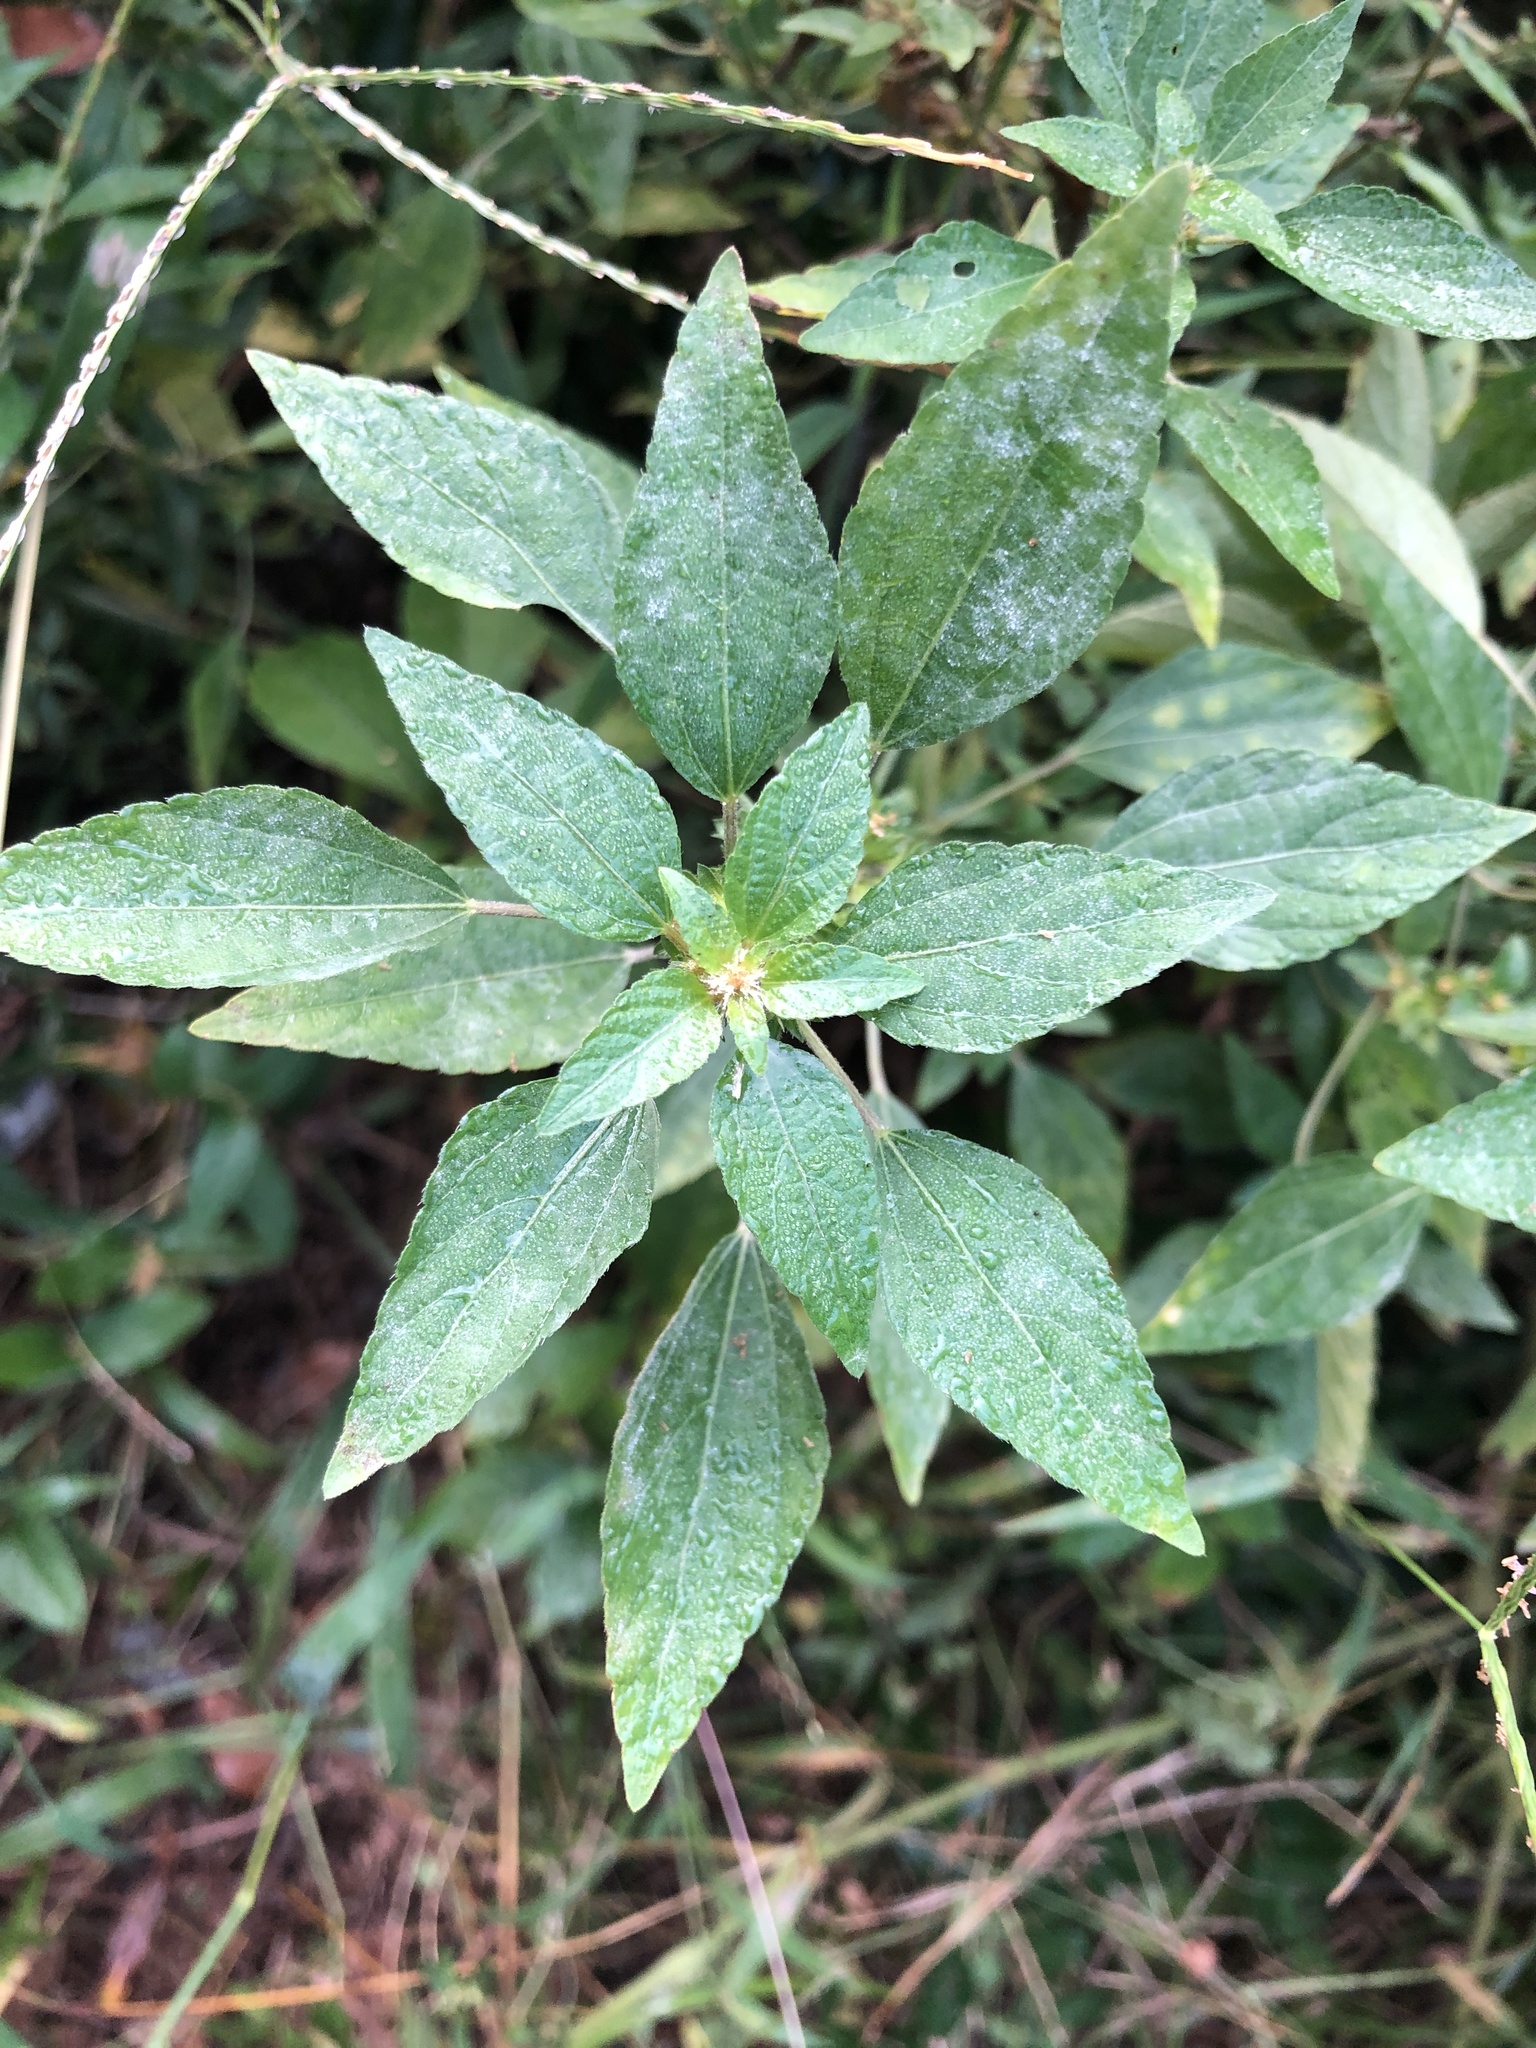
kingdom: Plantae
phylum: Tracheophyta
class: Magnoliopsida
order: Malpighiales
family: Euphorbiaceae
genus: Acalypha
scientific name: Acalypha rhomboidea
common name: Rhombic copperleaf
